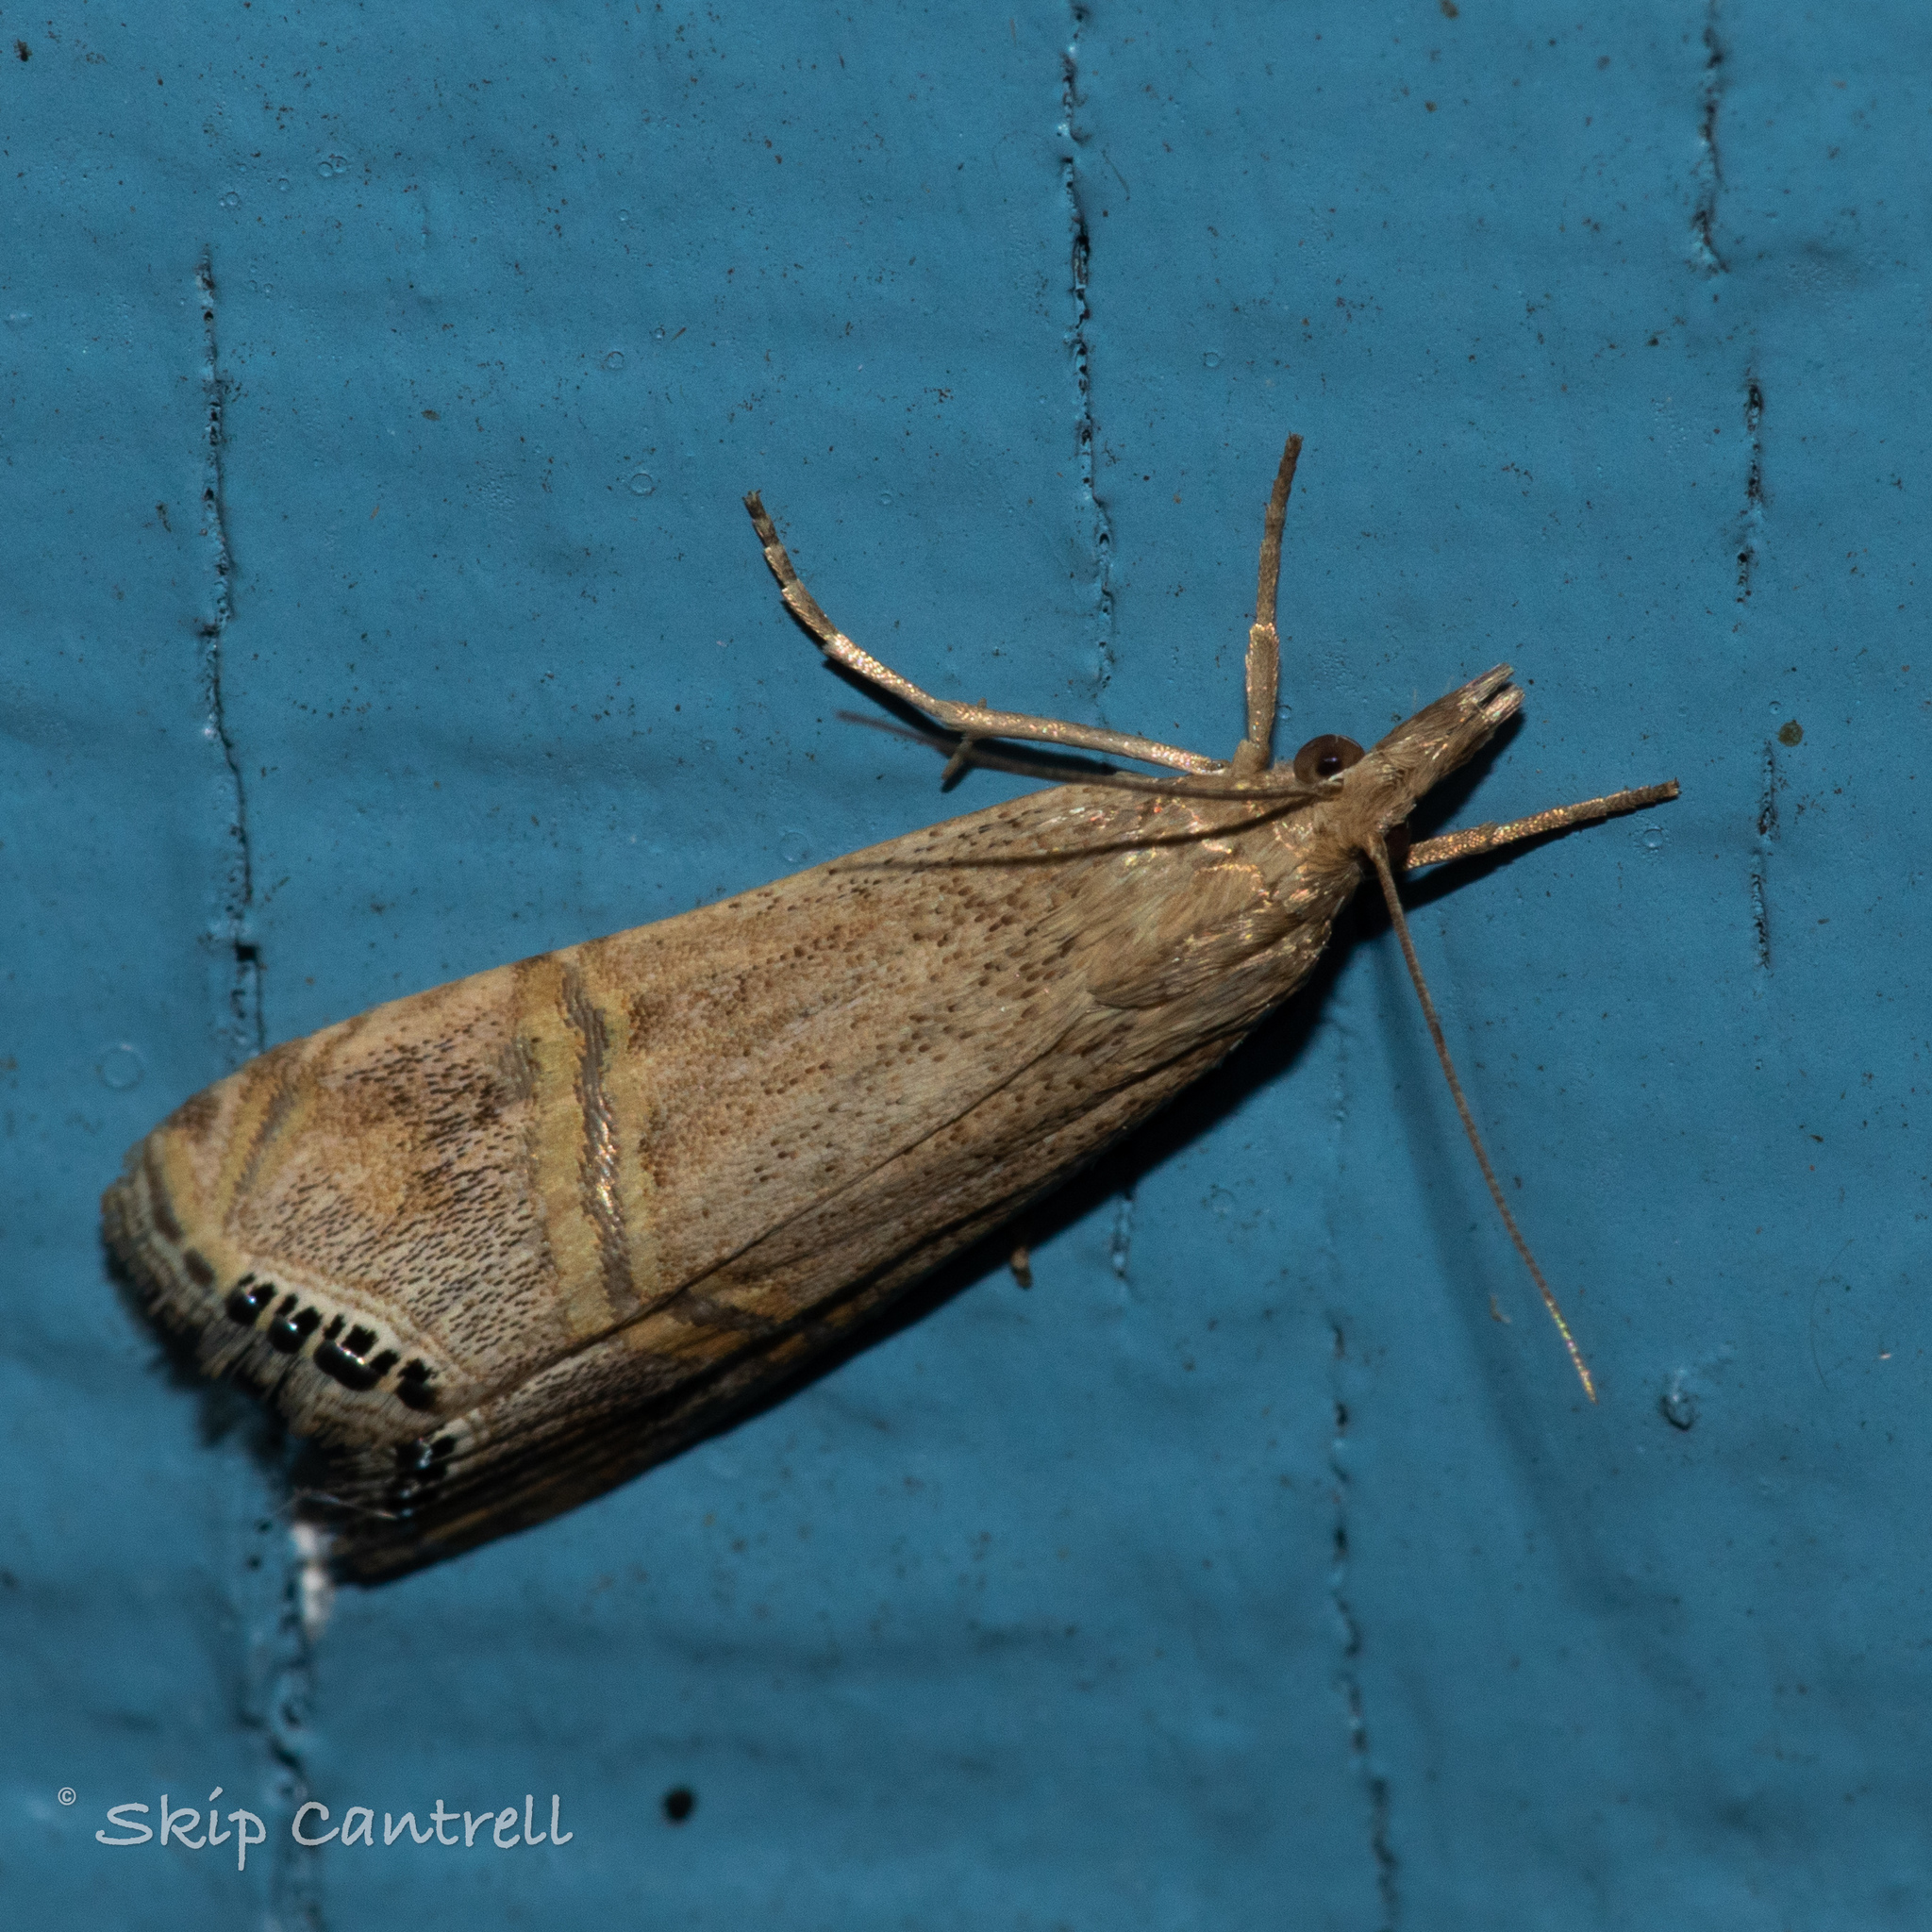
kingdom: Animalia
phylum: Arthropoda
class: Insecta
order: Lepidoptera
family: Crambidae
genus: Euchromius
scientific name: Euchromius ocellea
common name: Necklace veneer moth
